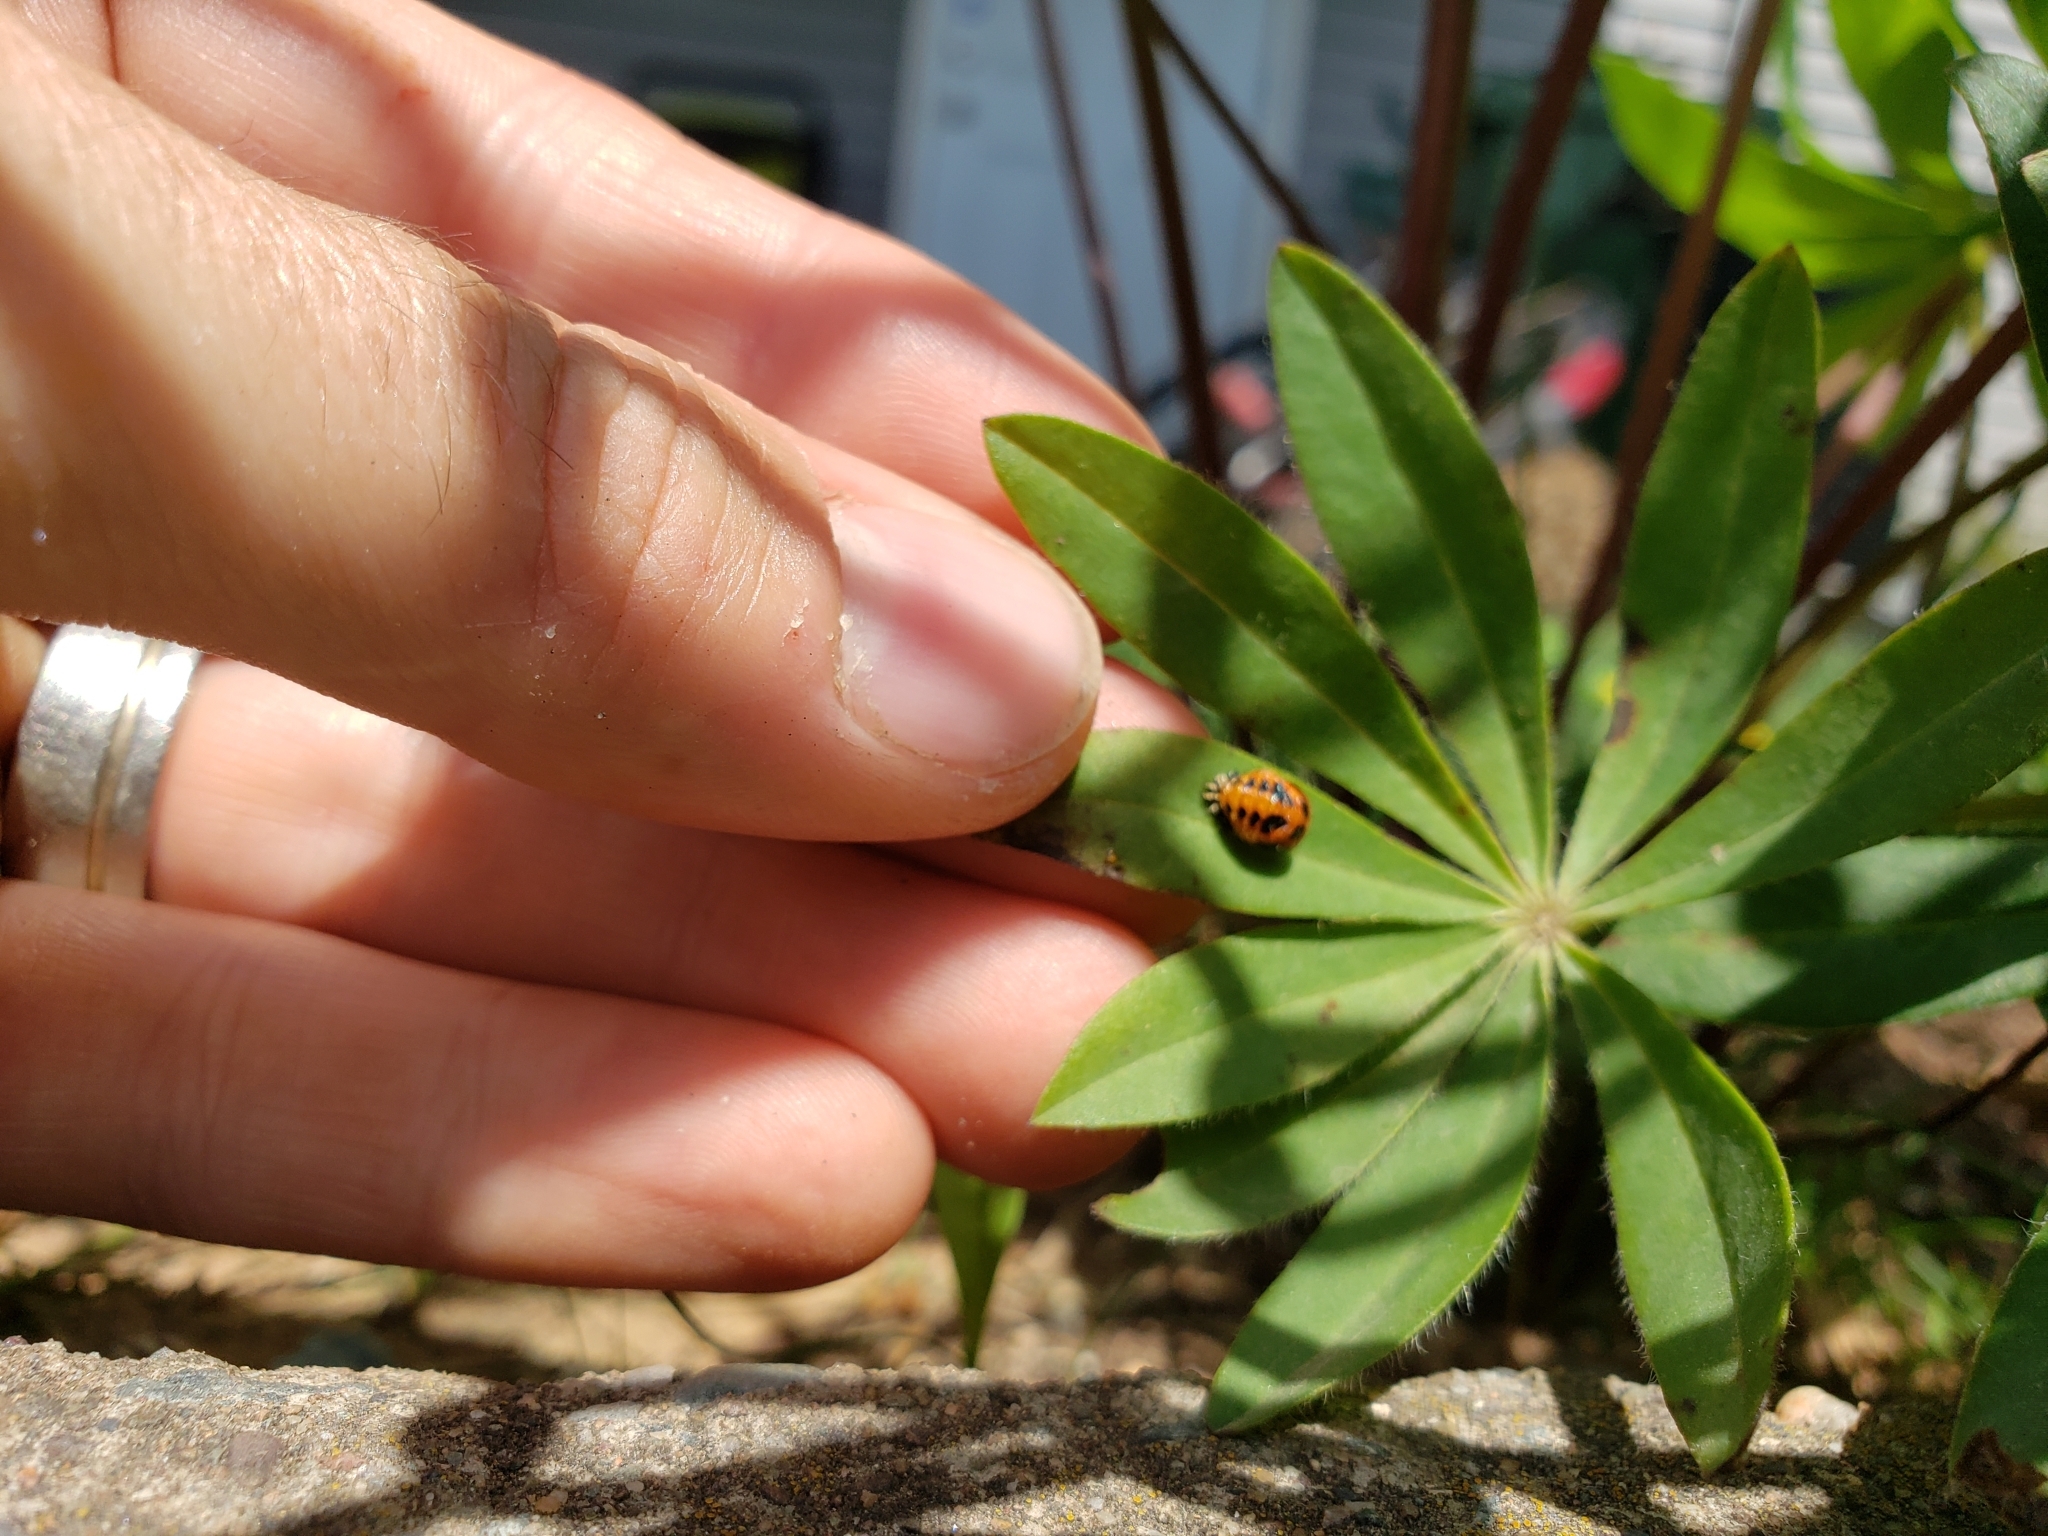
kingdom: Animalia
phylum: Arthropoda
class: Insecta
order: Coleoptera
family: Coccinellidae
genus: Harmonia
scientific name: Harmonia axyridis
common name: Harlequin ladybird
